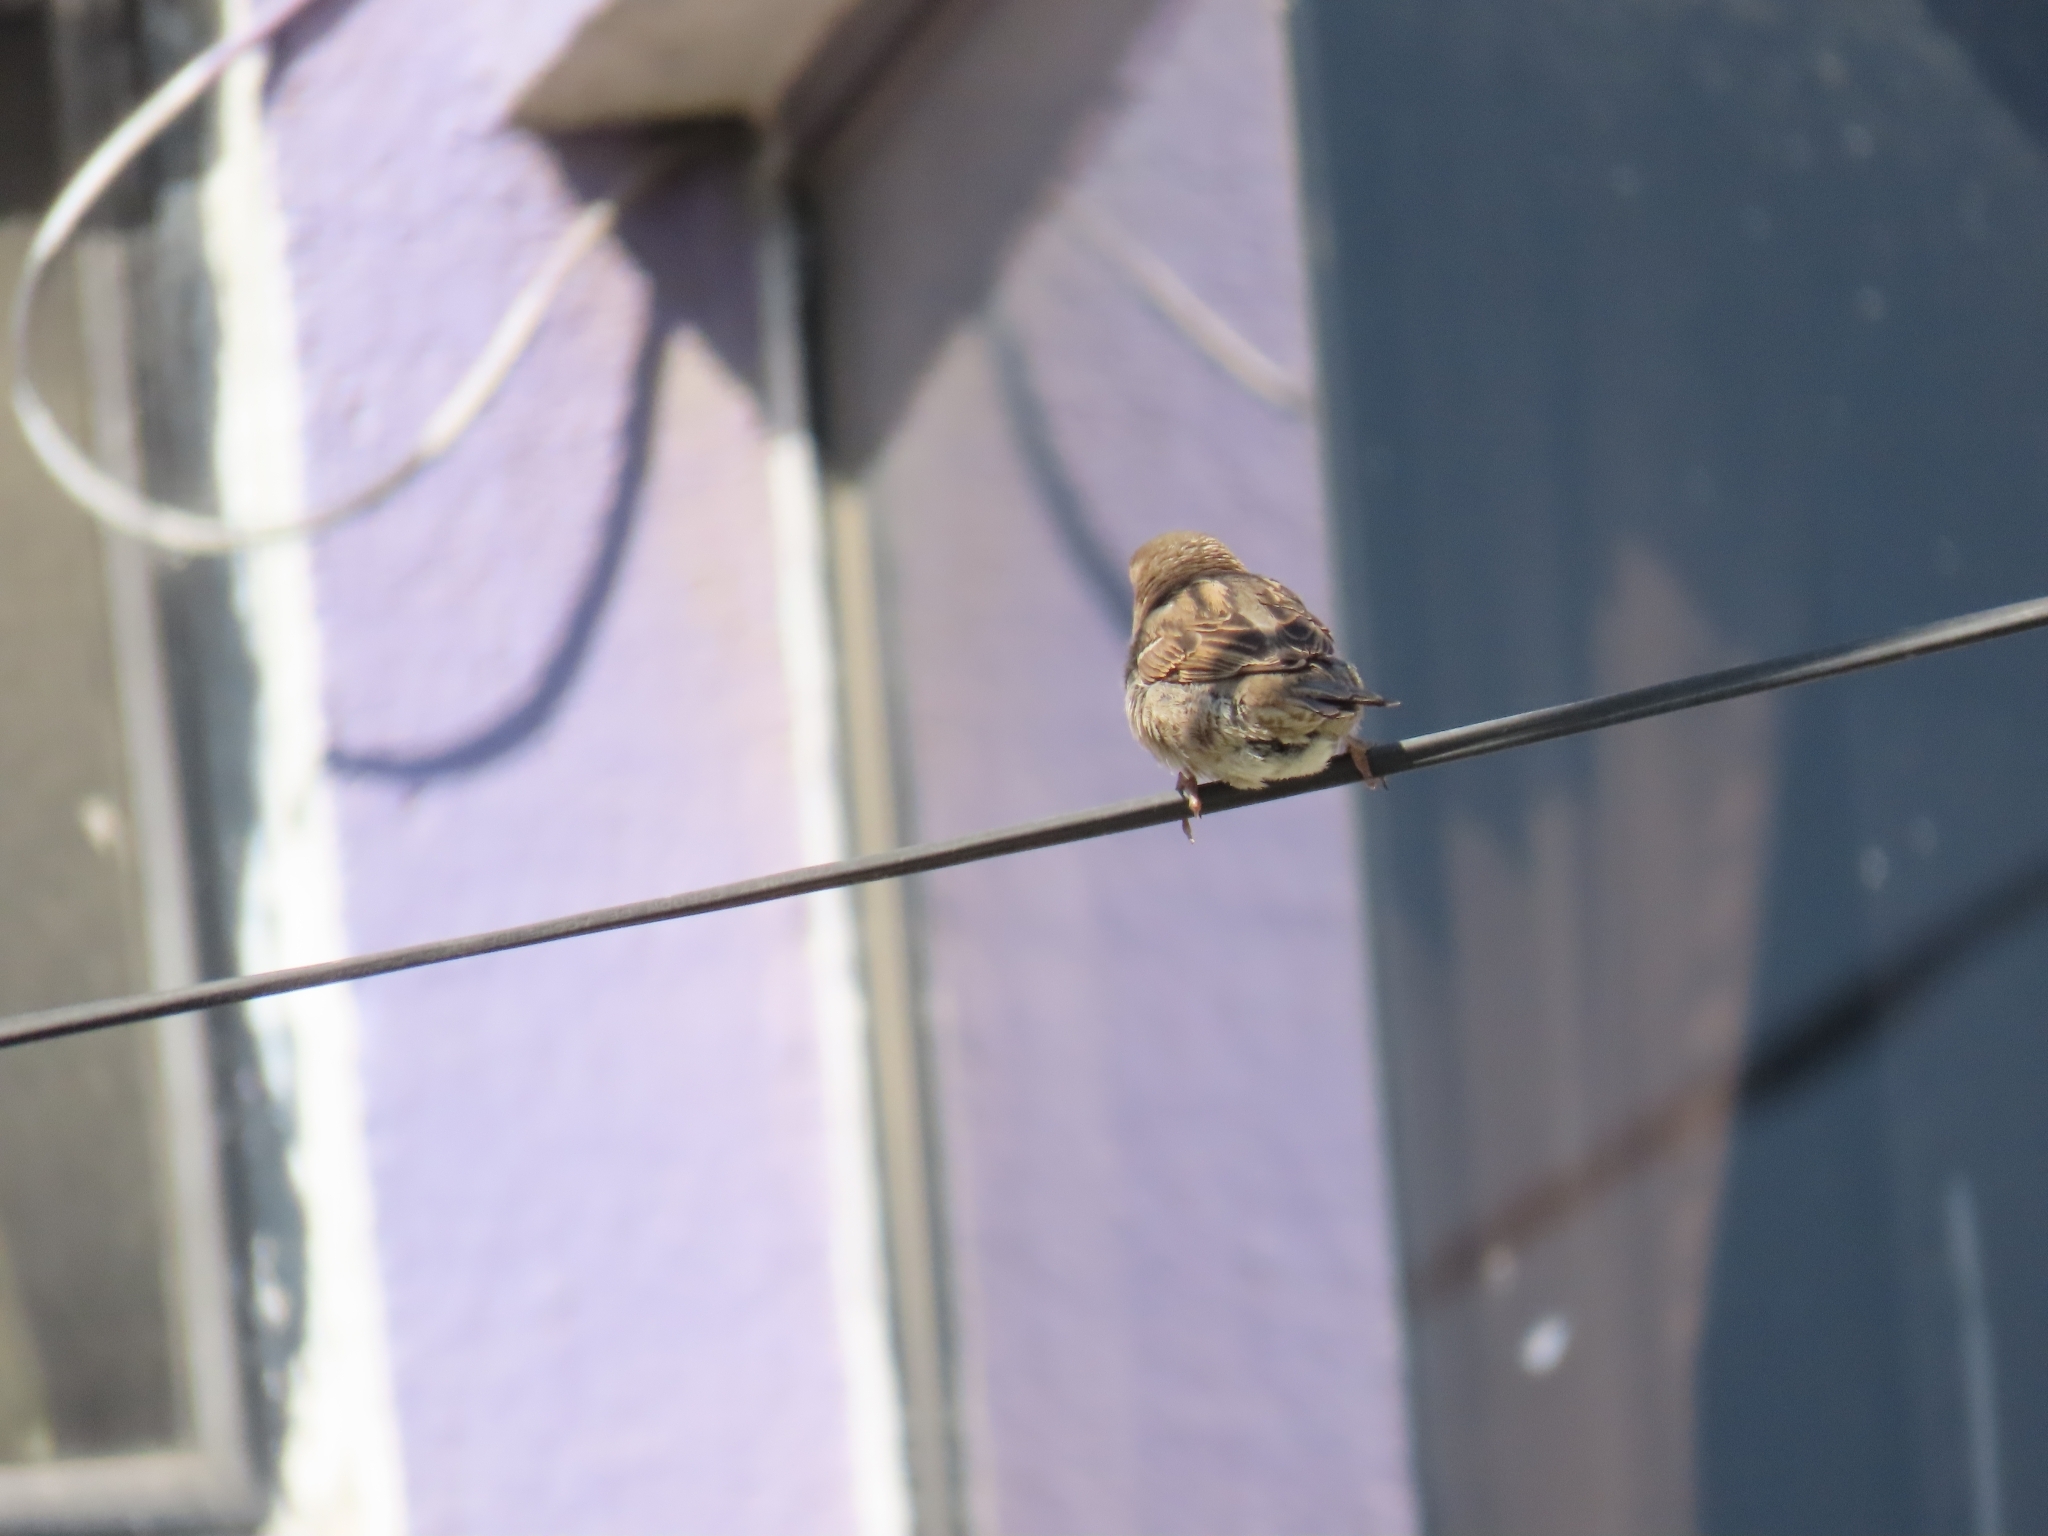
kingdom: Animalia
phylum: Chordata
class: Aves
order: Passeriformes
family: Passeridae
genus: Passer
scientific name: Passer domesticus
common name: House sparrow
